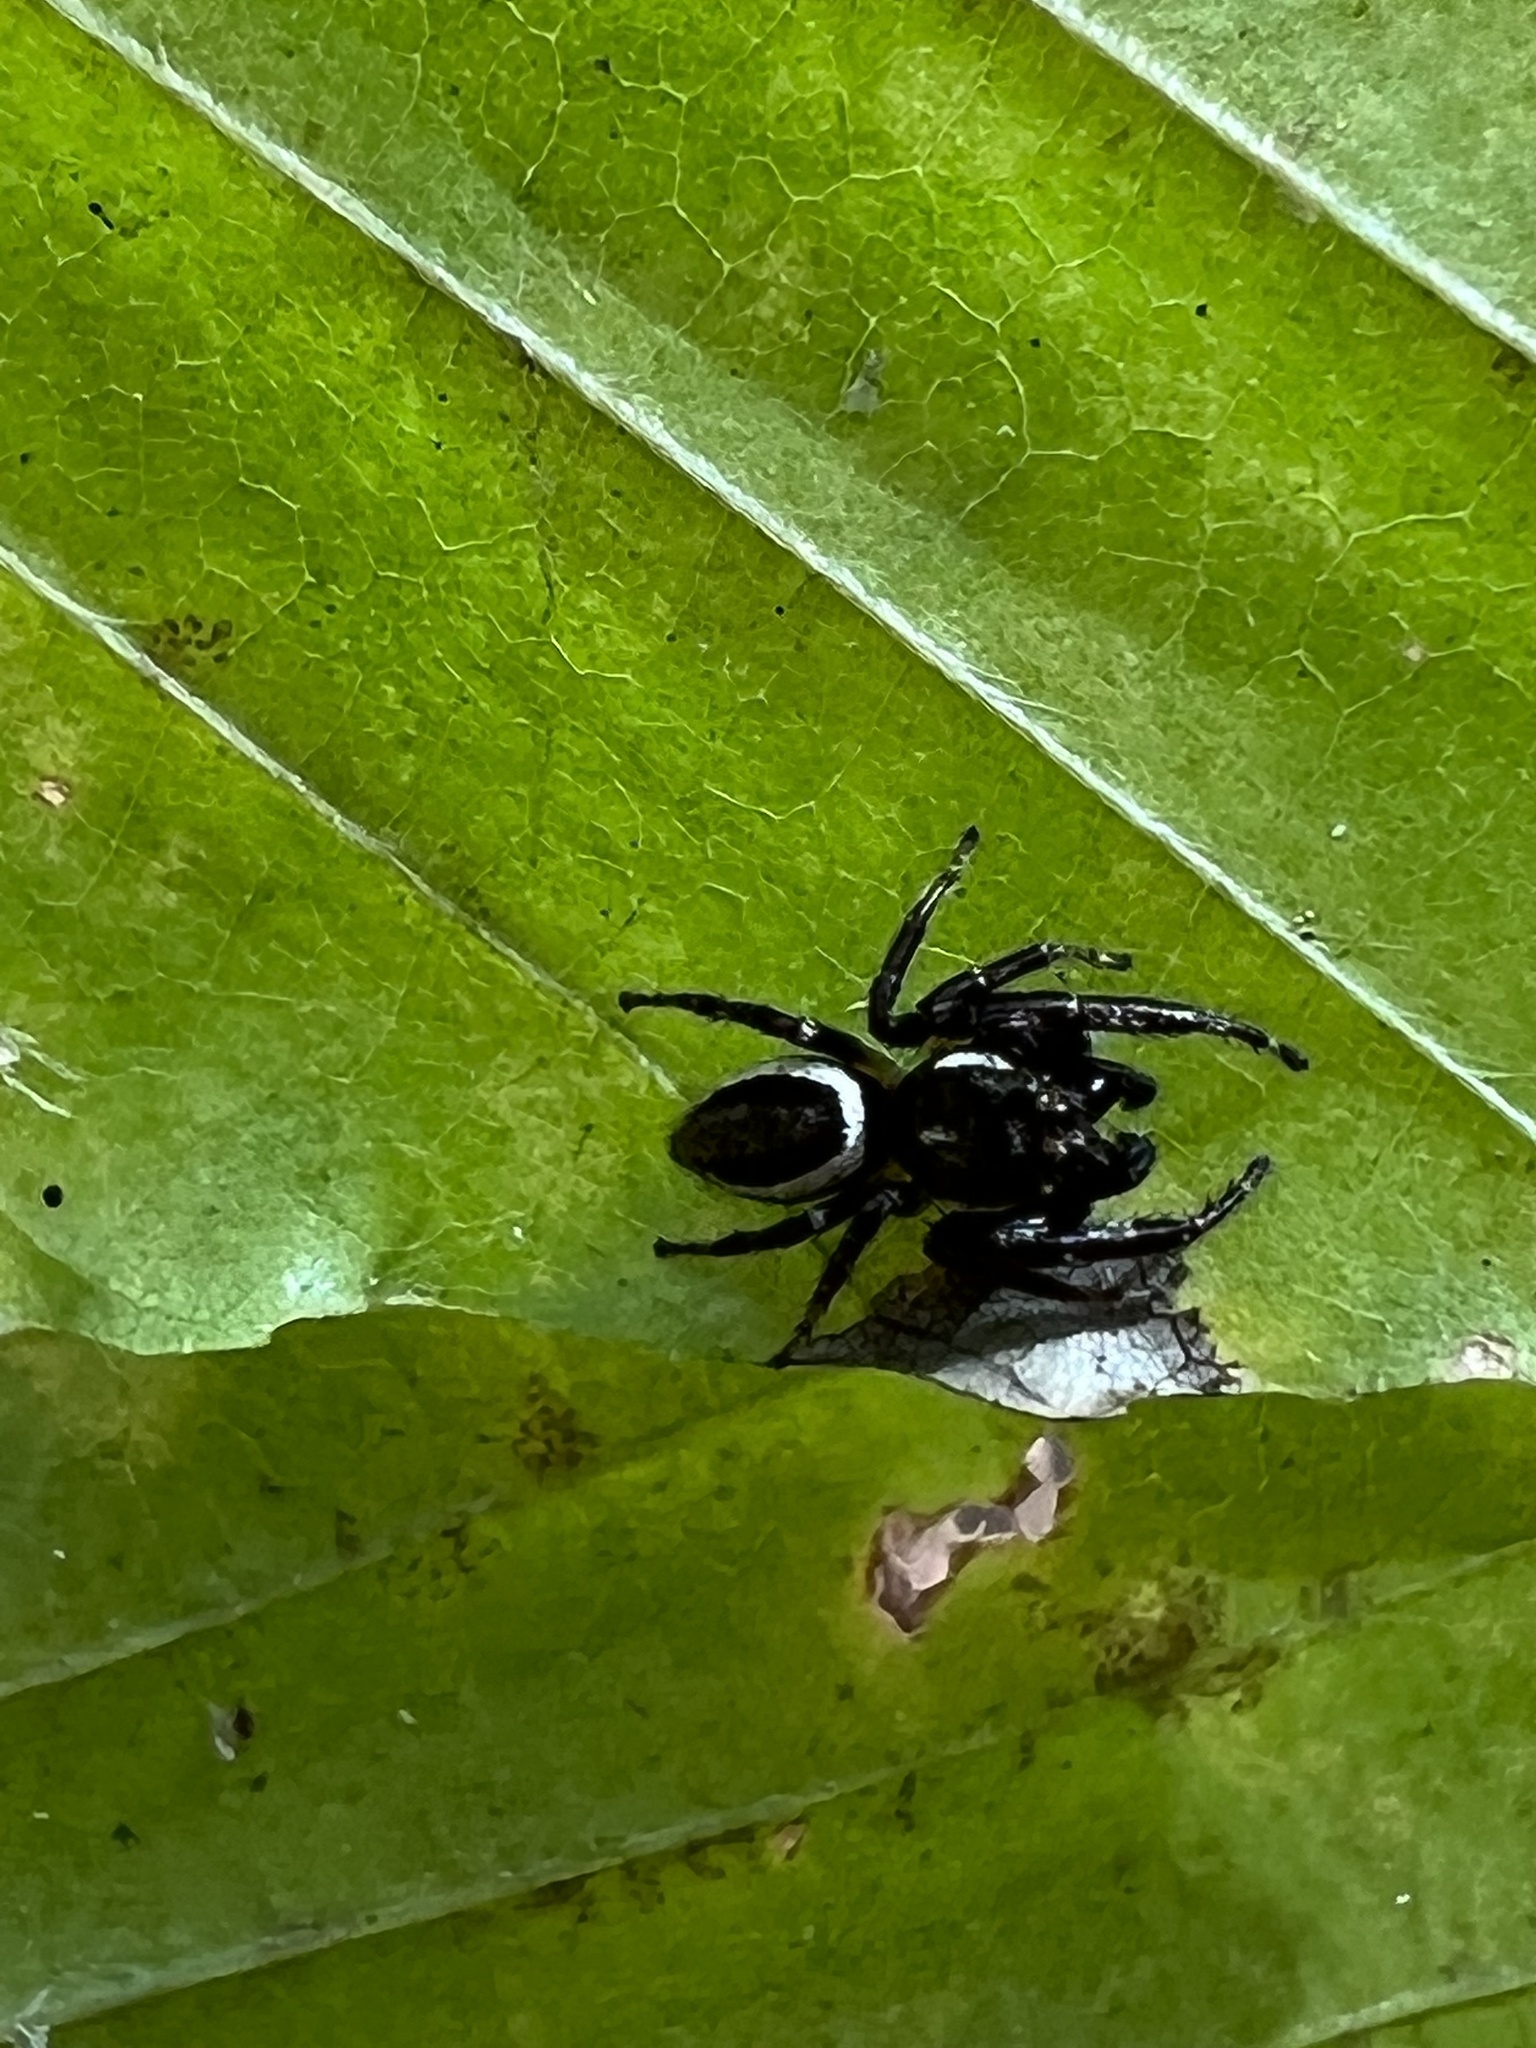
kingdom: Animalia
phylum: Arthropoda
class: Arachnida
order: Araneae
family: Salticidae
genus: Eris
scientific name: Eris militaris
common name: Bronze jumper
